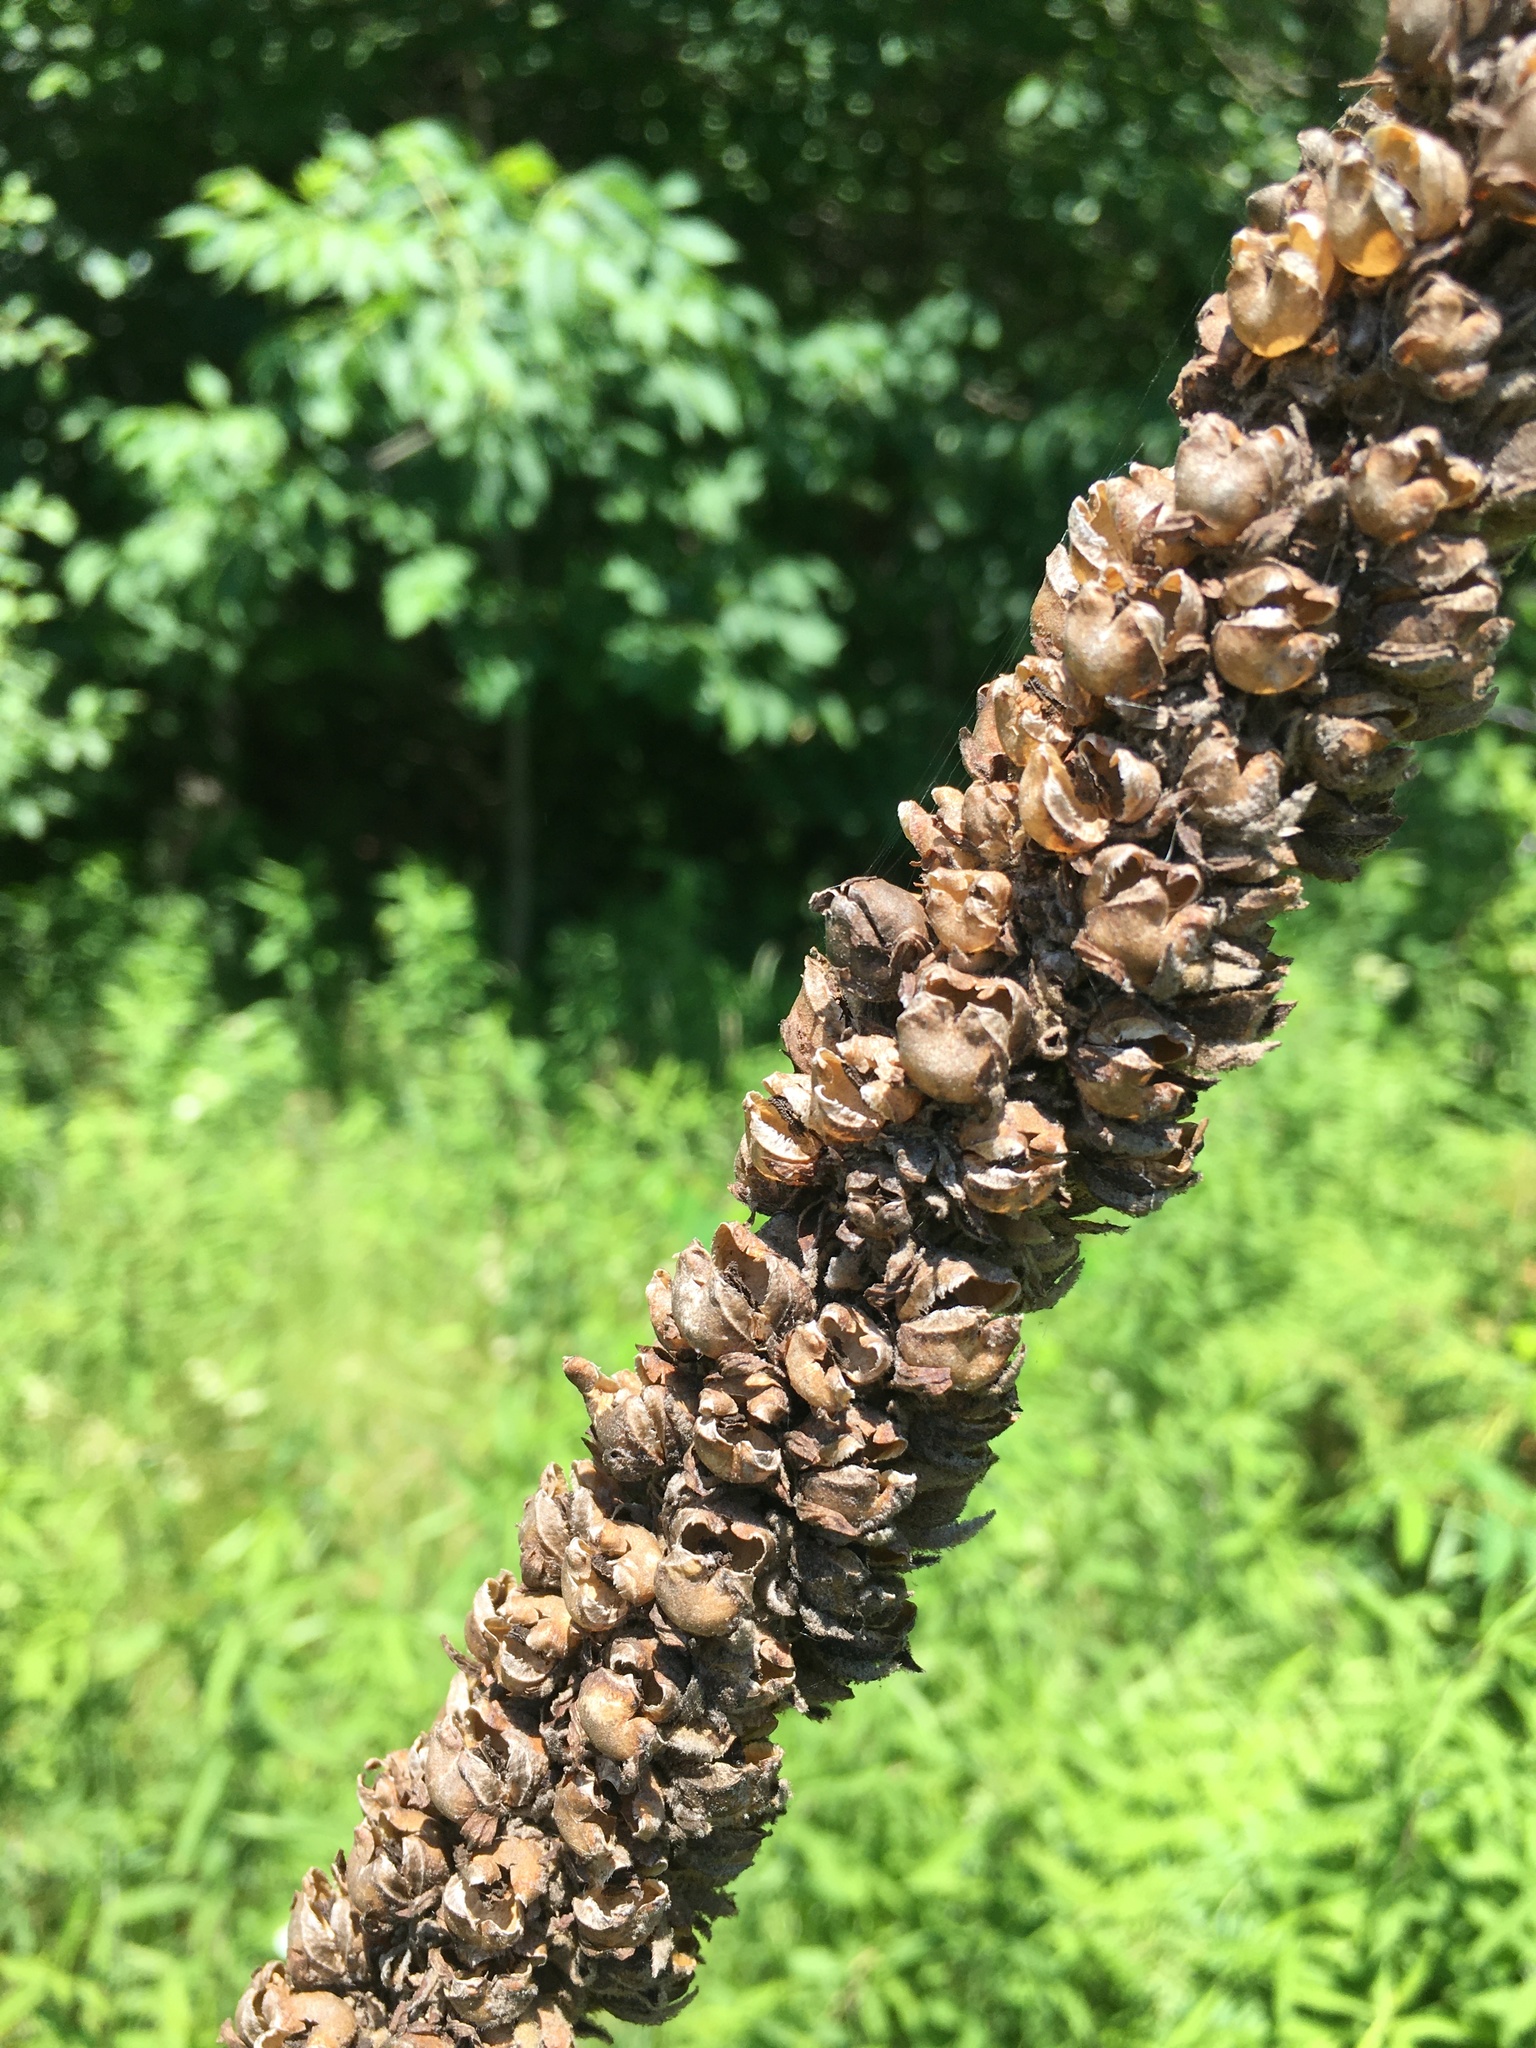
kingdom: Plantae
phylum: Tracheophyta
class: Magnoliopsida
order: Lamiales
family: Scrophulariaceae
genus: Verbascum
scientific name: Verbascum thapsus
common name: Common mullein
